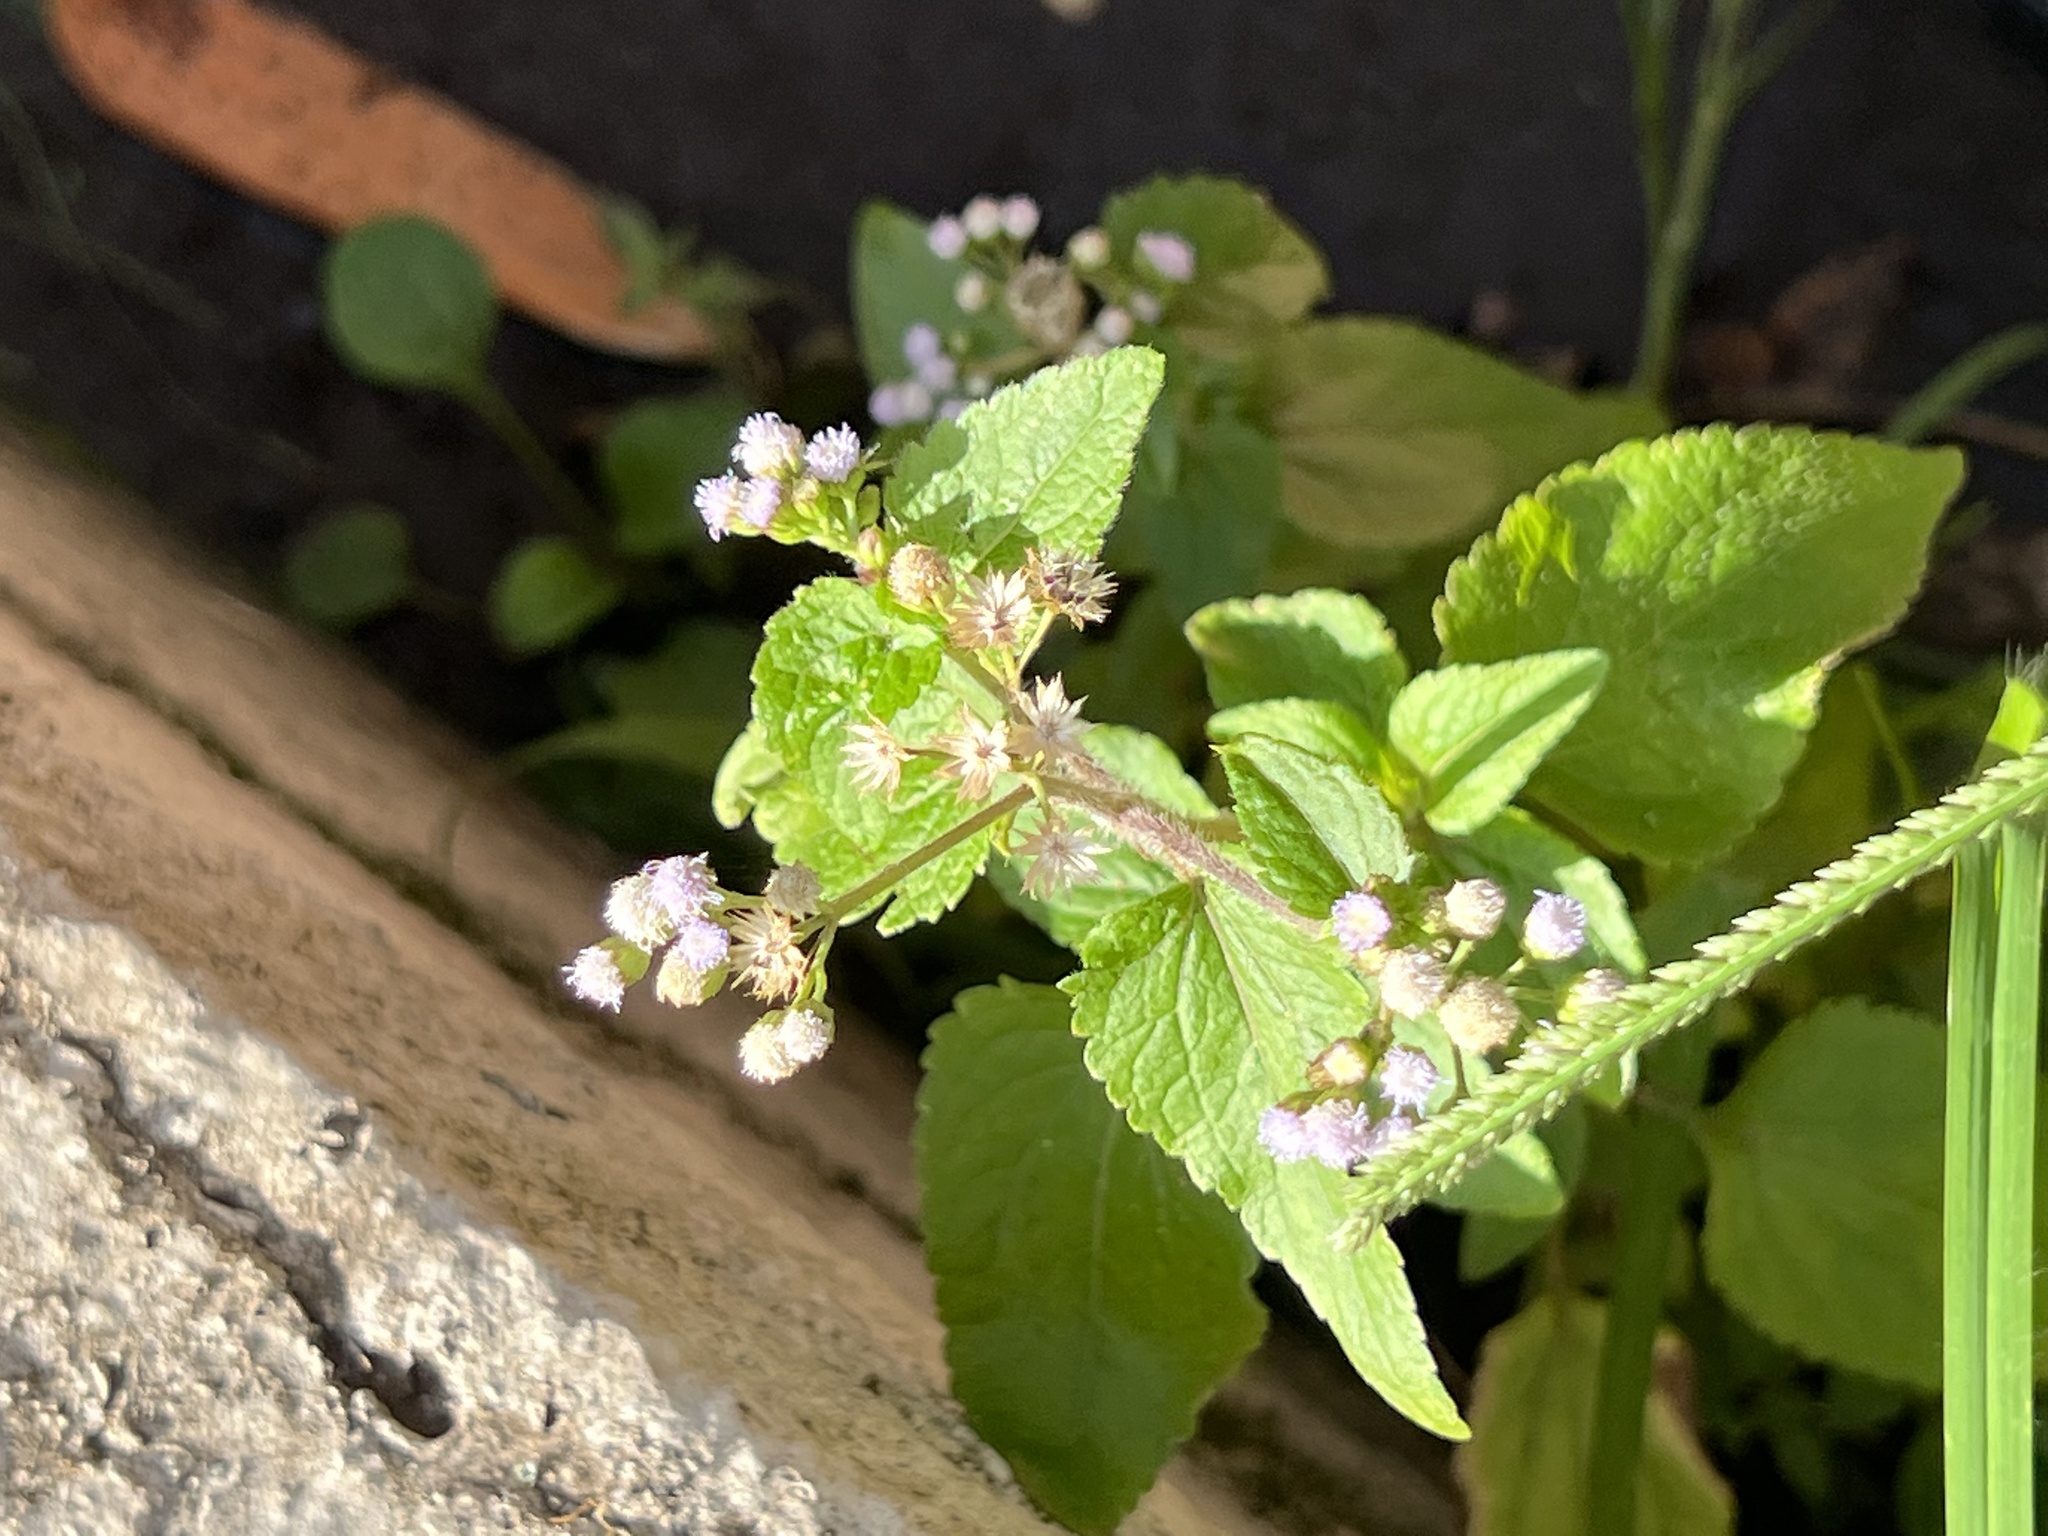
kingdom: Plantae
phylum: Tracheophyta
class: Magnoliopsida
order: Asterales
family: Asteraceae
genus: Ageratum
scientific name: Ageratum conyzoides
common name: Tropical whiteweed
